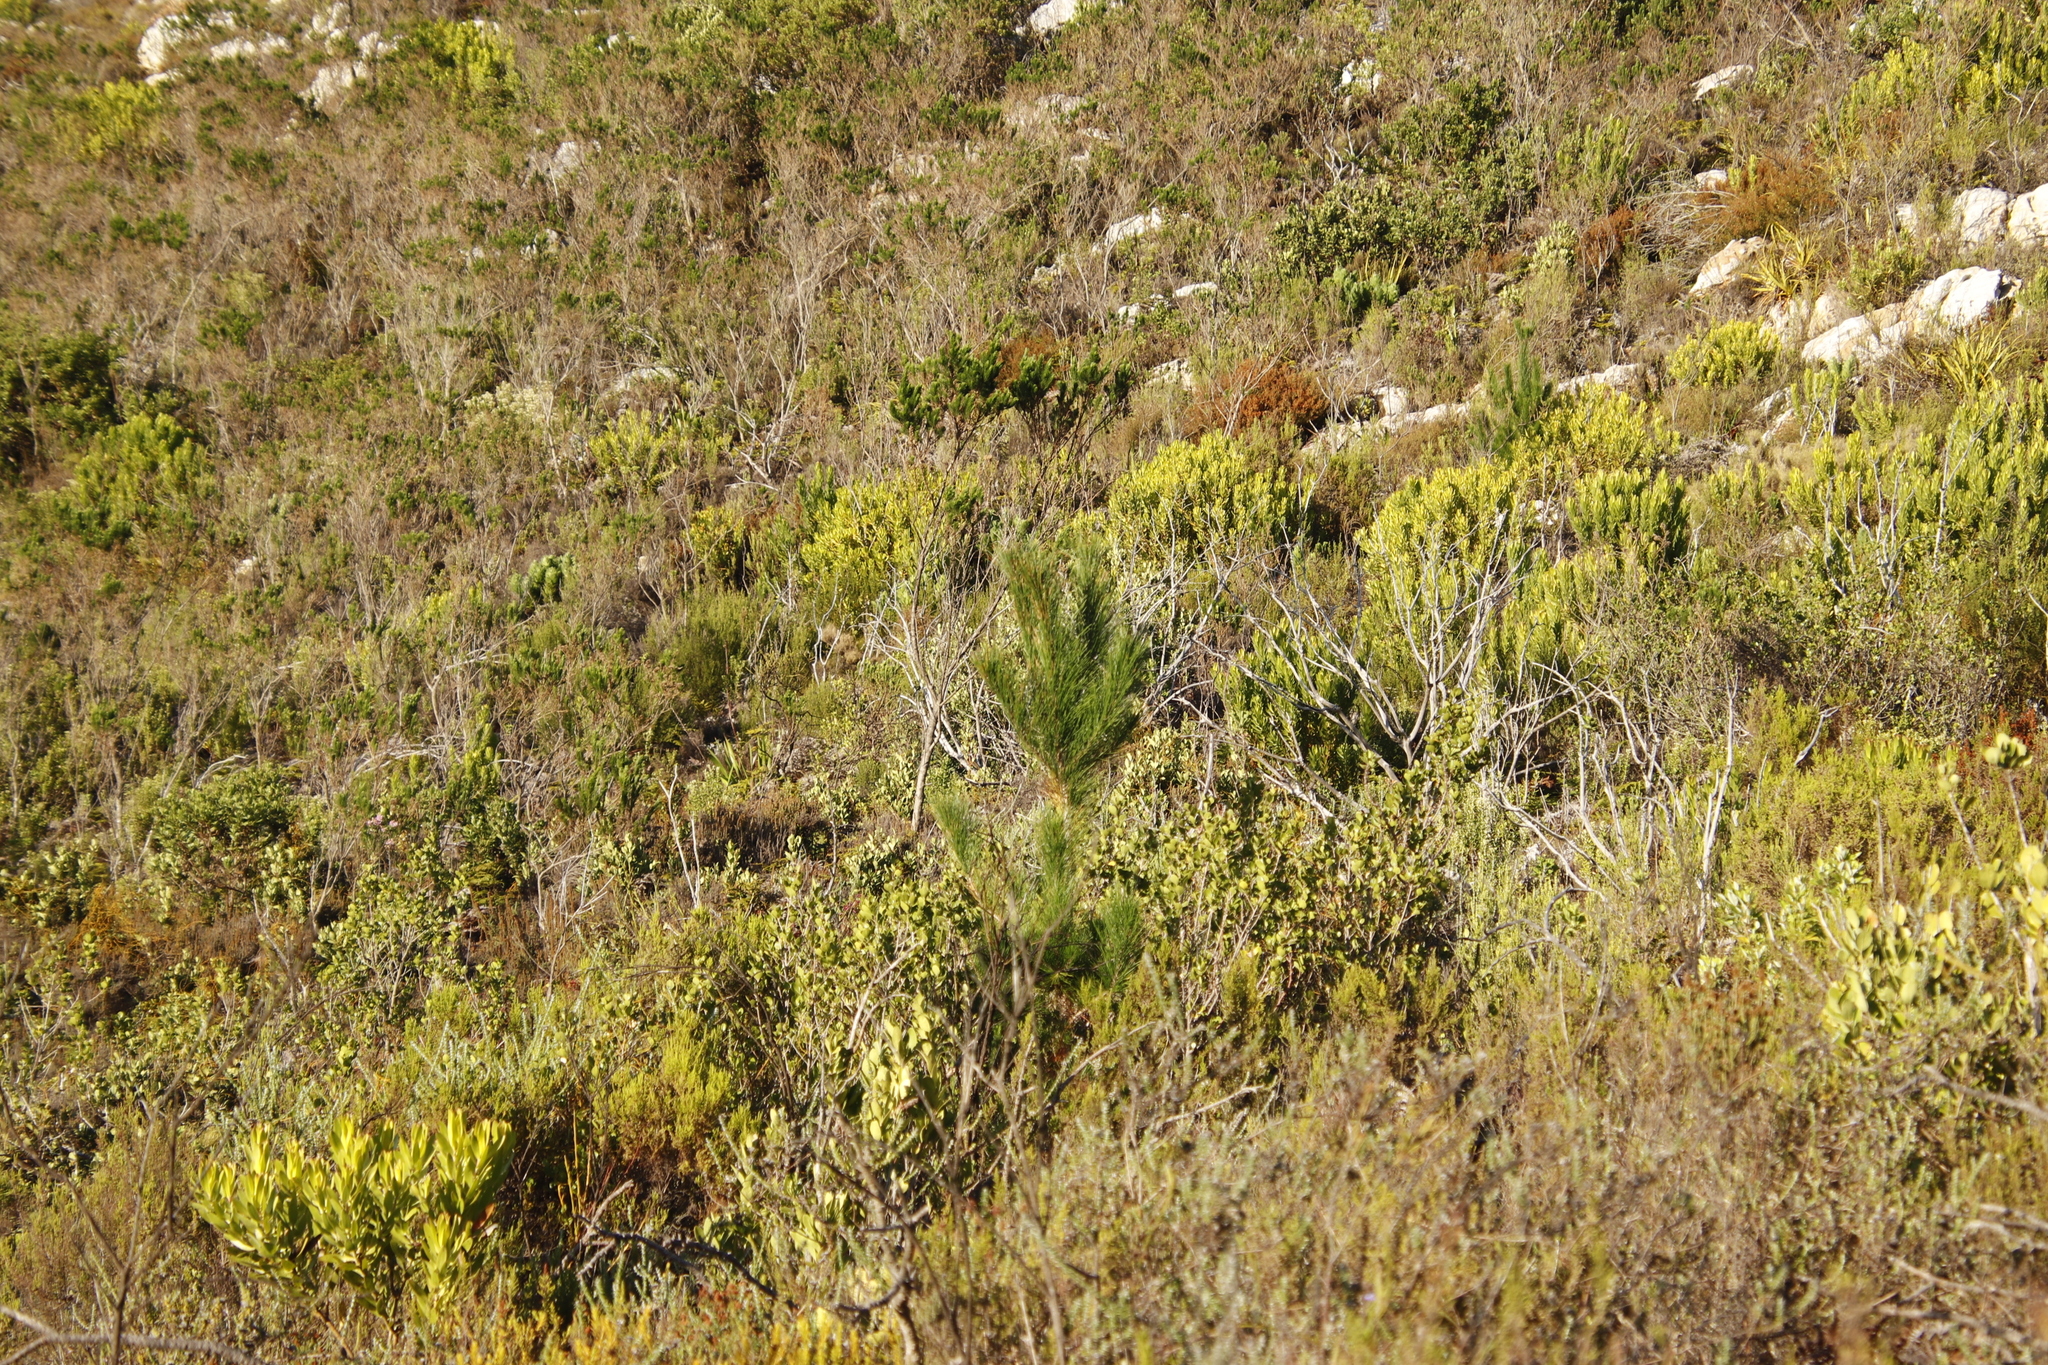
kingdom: Plantae
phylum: Tracheophyta
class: Pinopsida
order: Pinales
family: Pinaceae
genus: Pinus
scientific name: Pinus radiata
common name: Monterey pine
